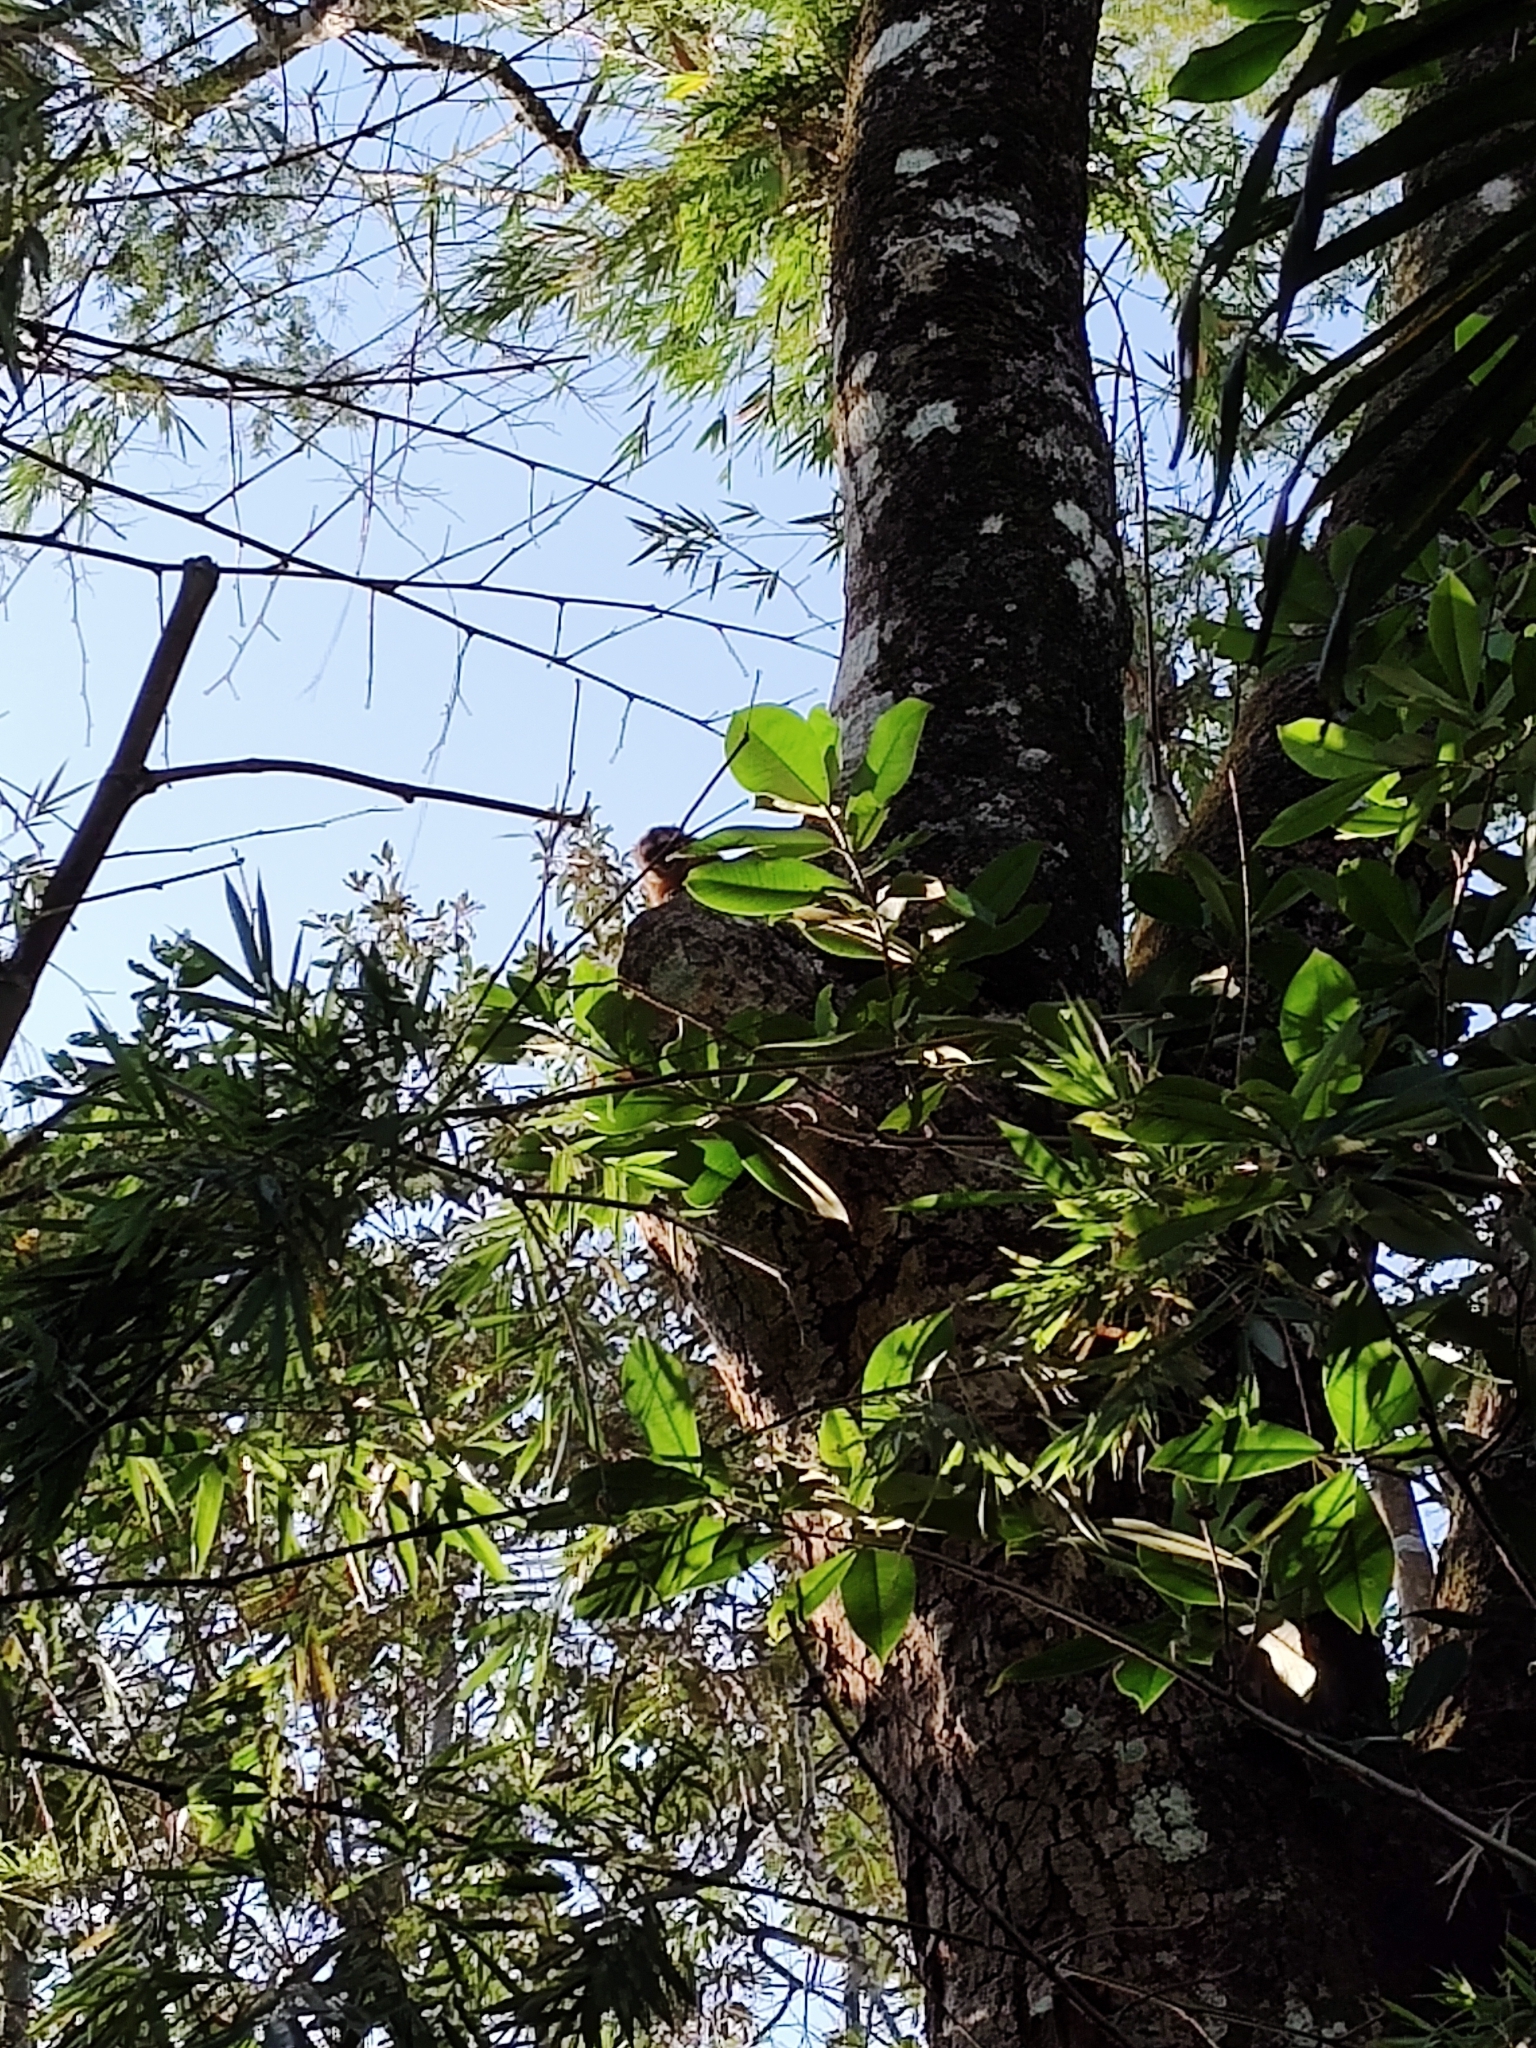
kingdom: Animalia
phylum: Chordata
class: Mammalia
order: Primates
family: Aotidae
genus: Aotus
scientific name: Aotus brumbacki
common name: Brumback's night monkey
